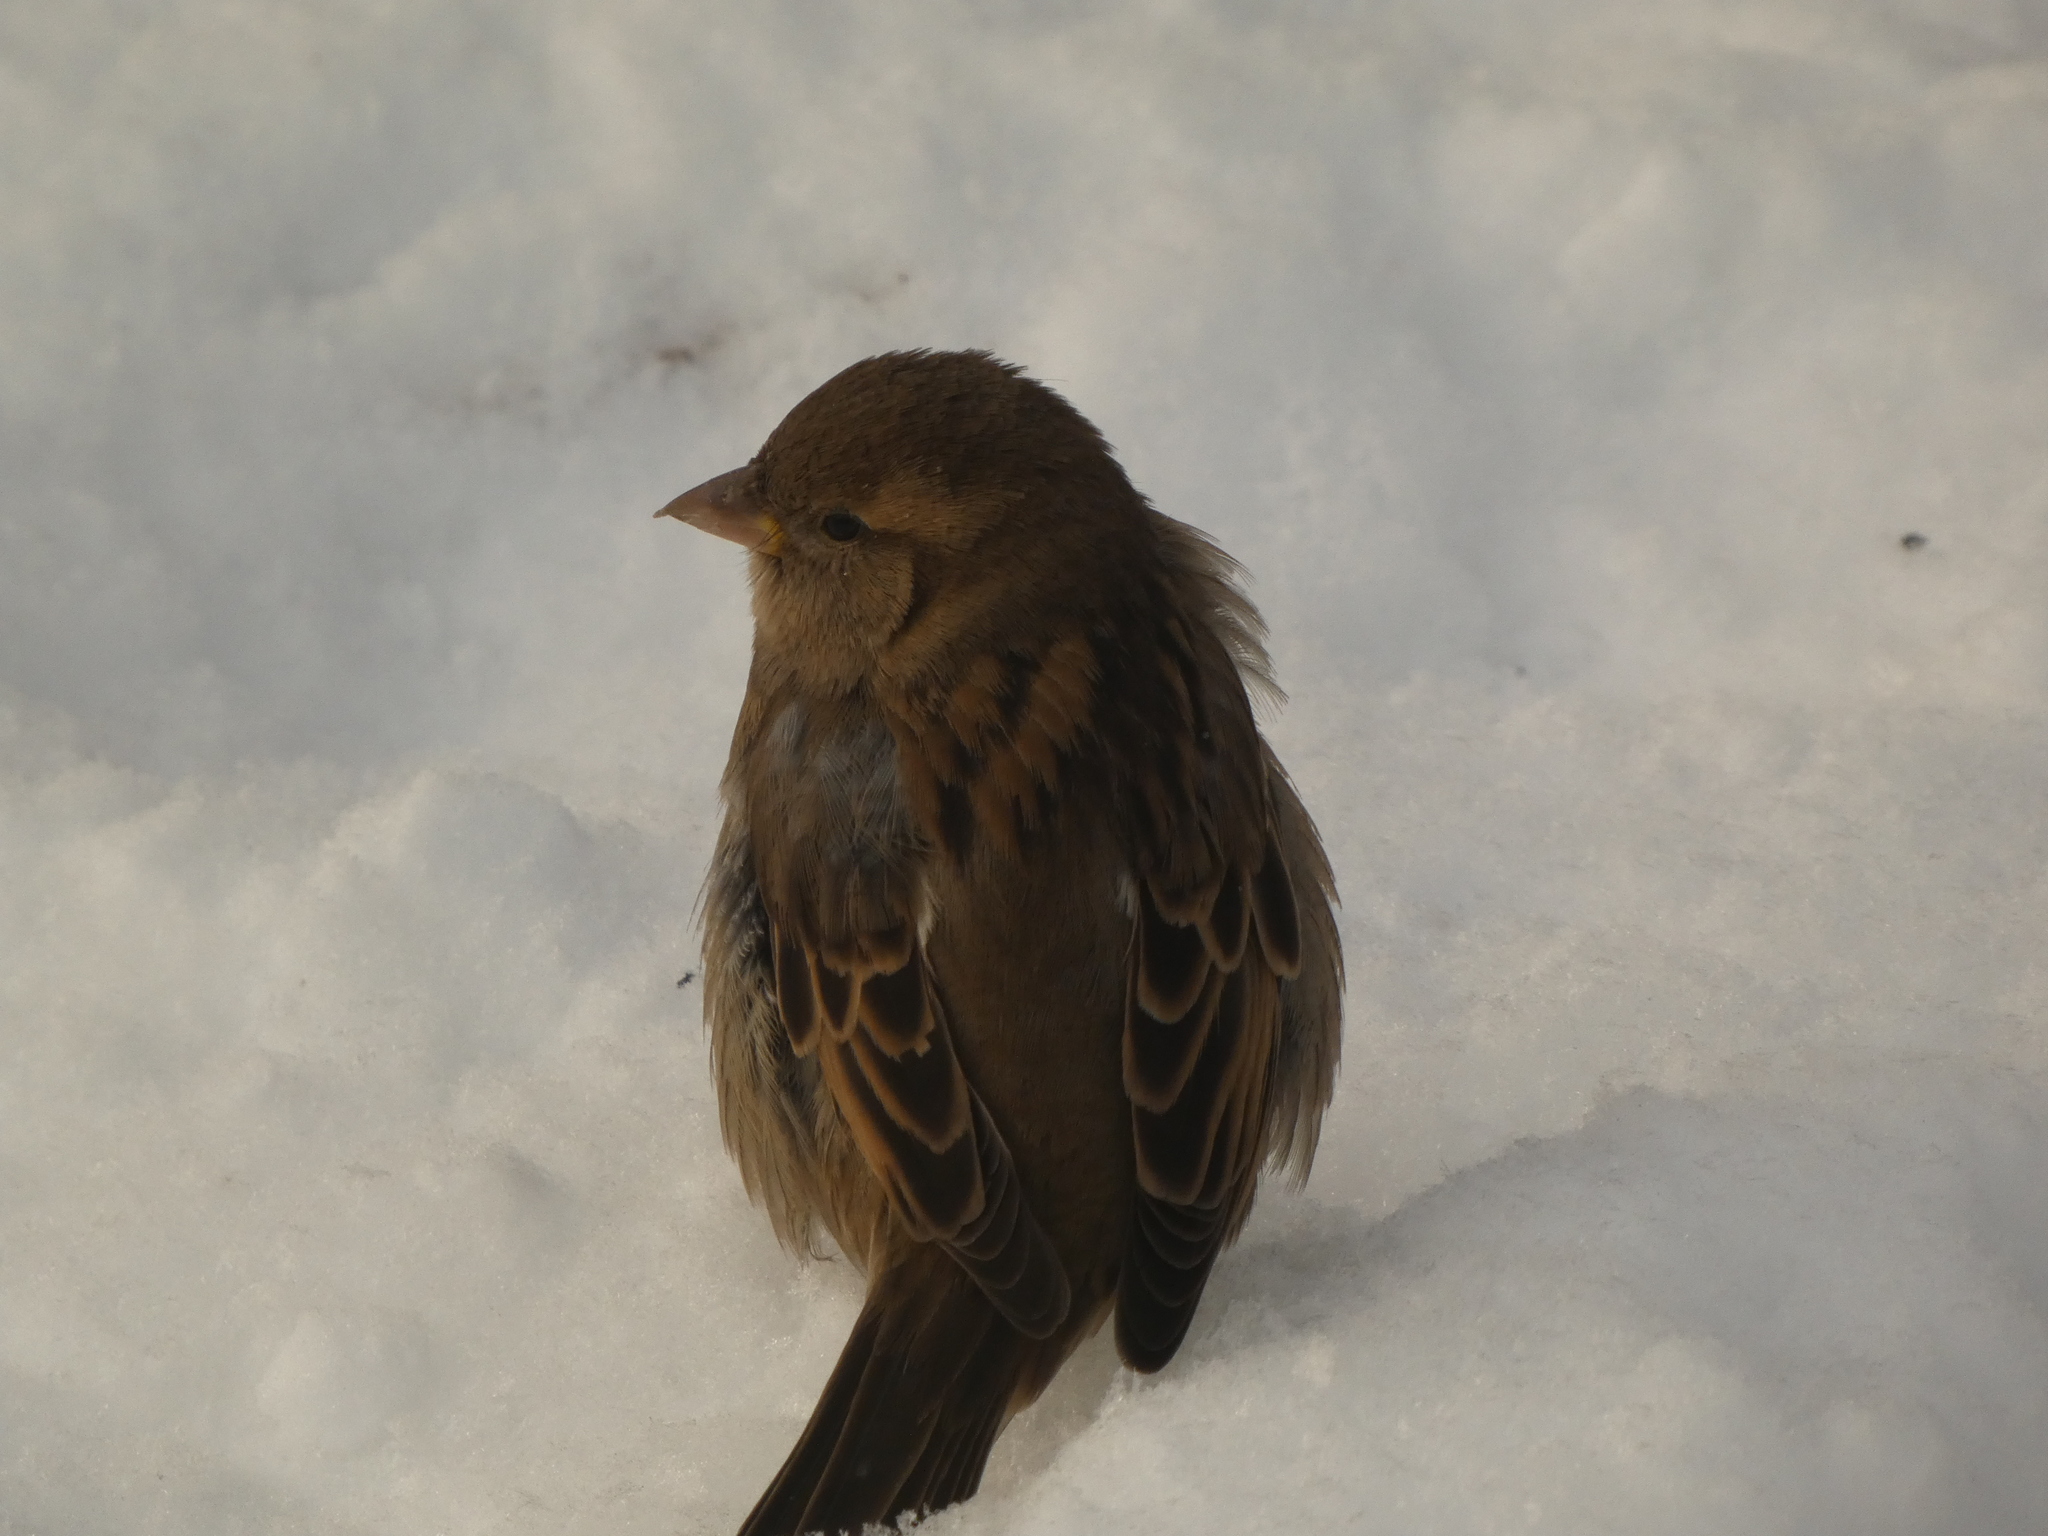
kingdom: Animalia
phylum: Chordata
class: Aves
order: Passeriformes
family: Passeridae
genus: Passer
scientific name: Passer domesticus
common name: House sparrow
